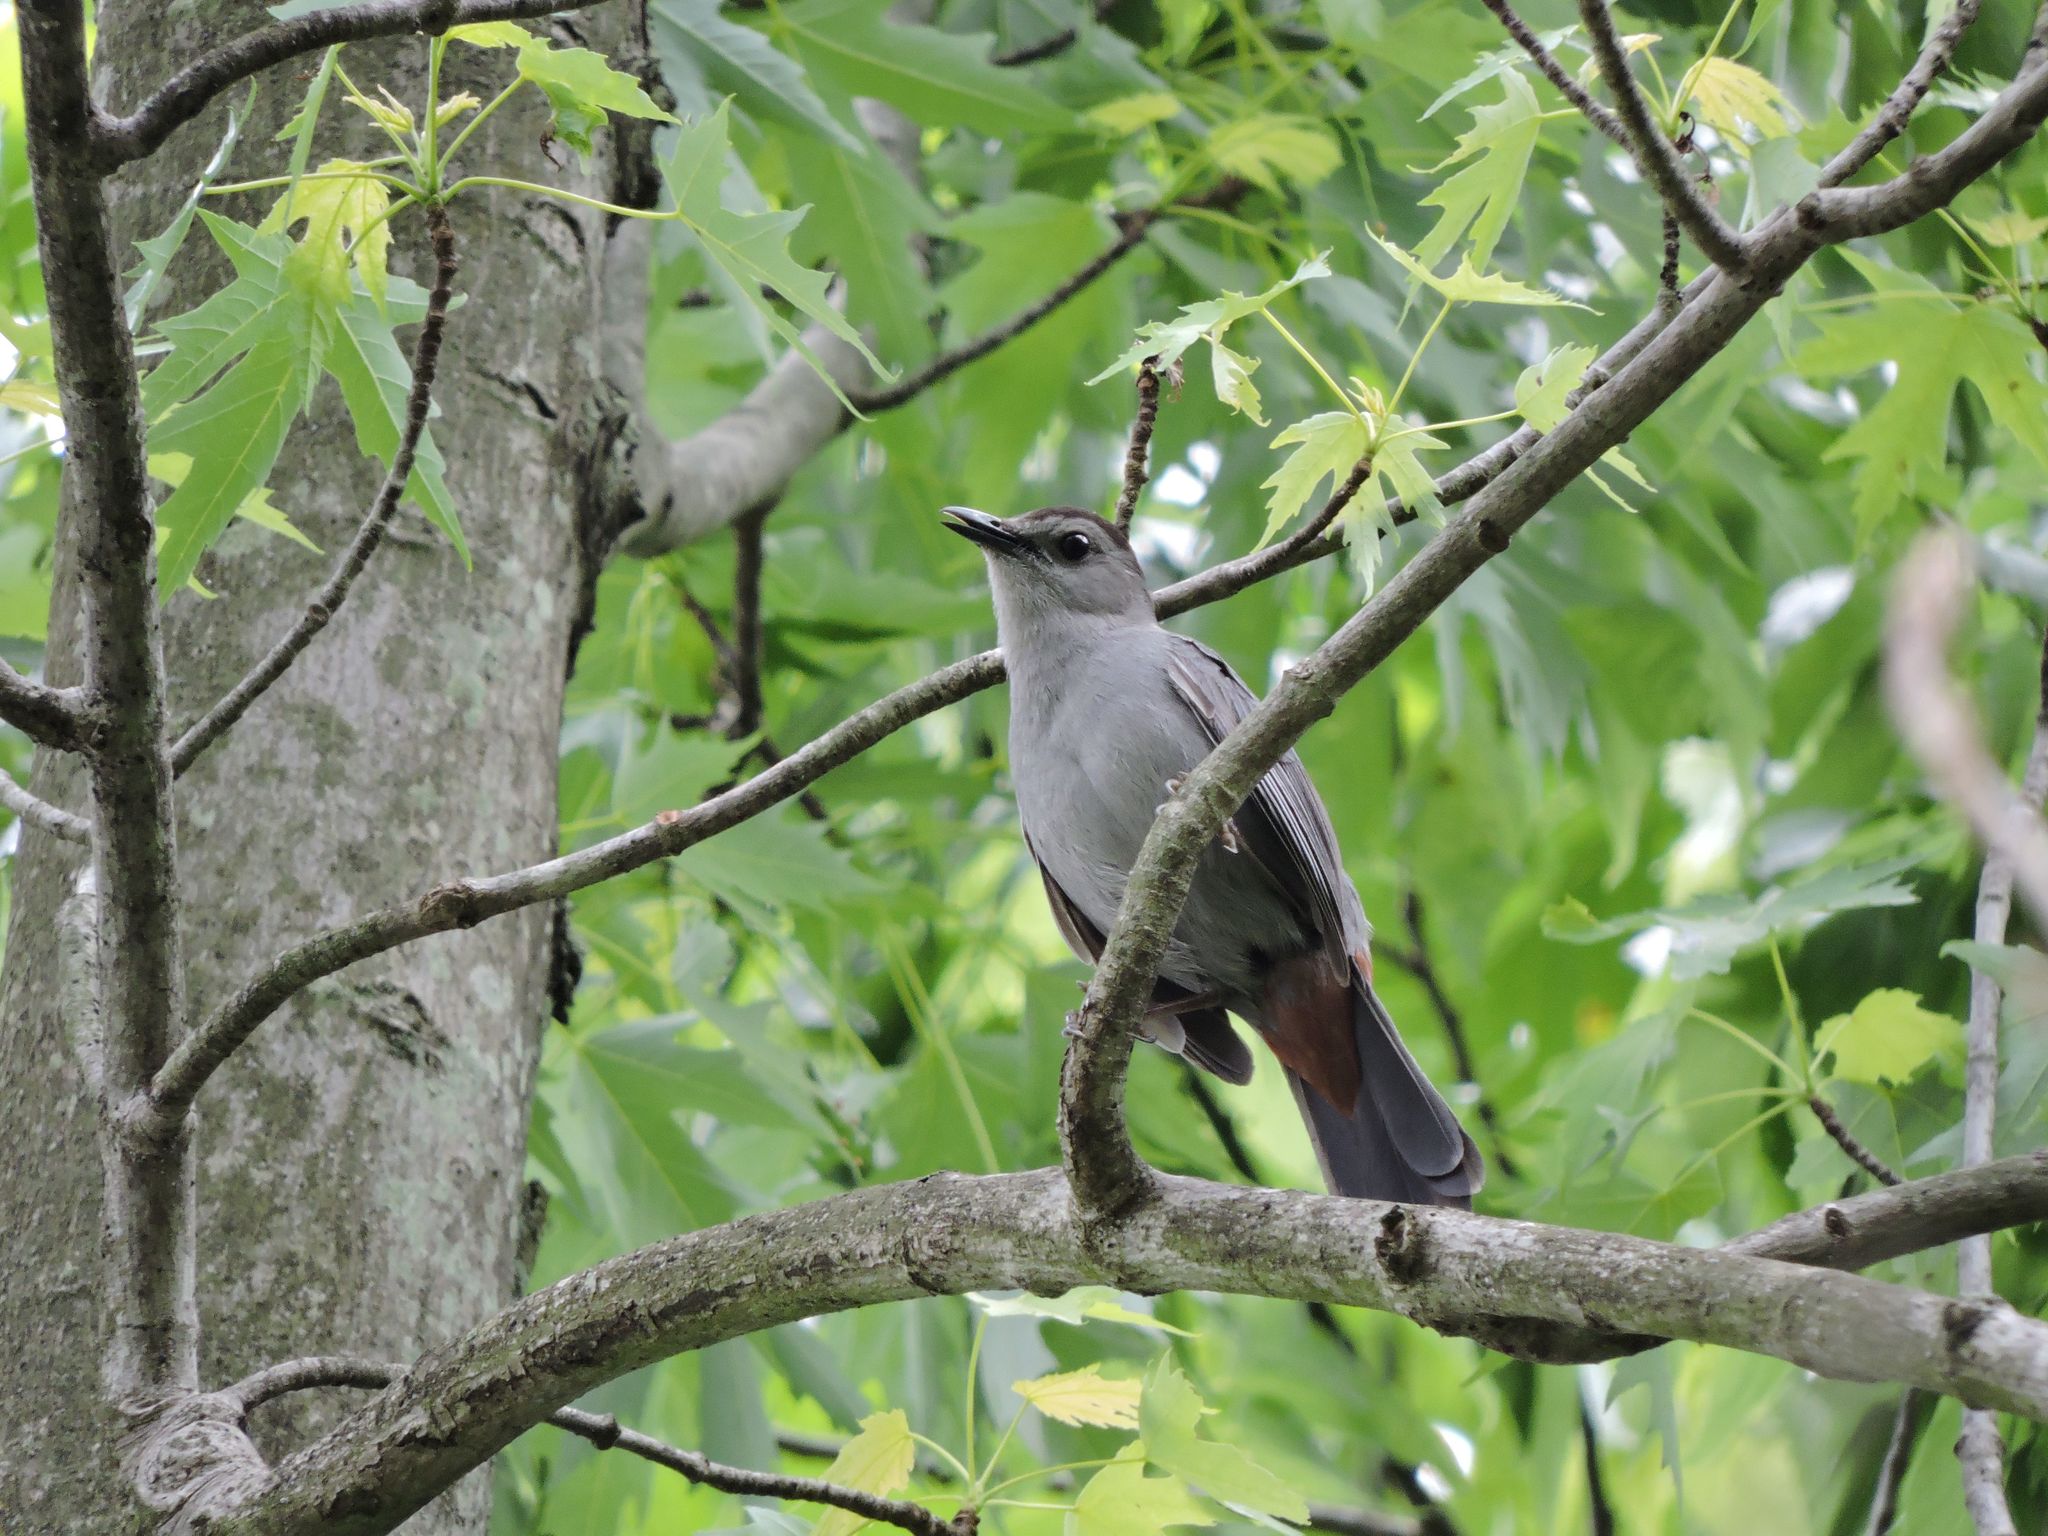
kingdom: Animalia
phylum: Chordata
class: Aves
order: Passeriformes
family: Mimidae
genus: Dumetella
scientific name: Dumetella carolinensis
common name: Gray catbird
